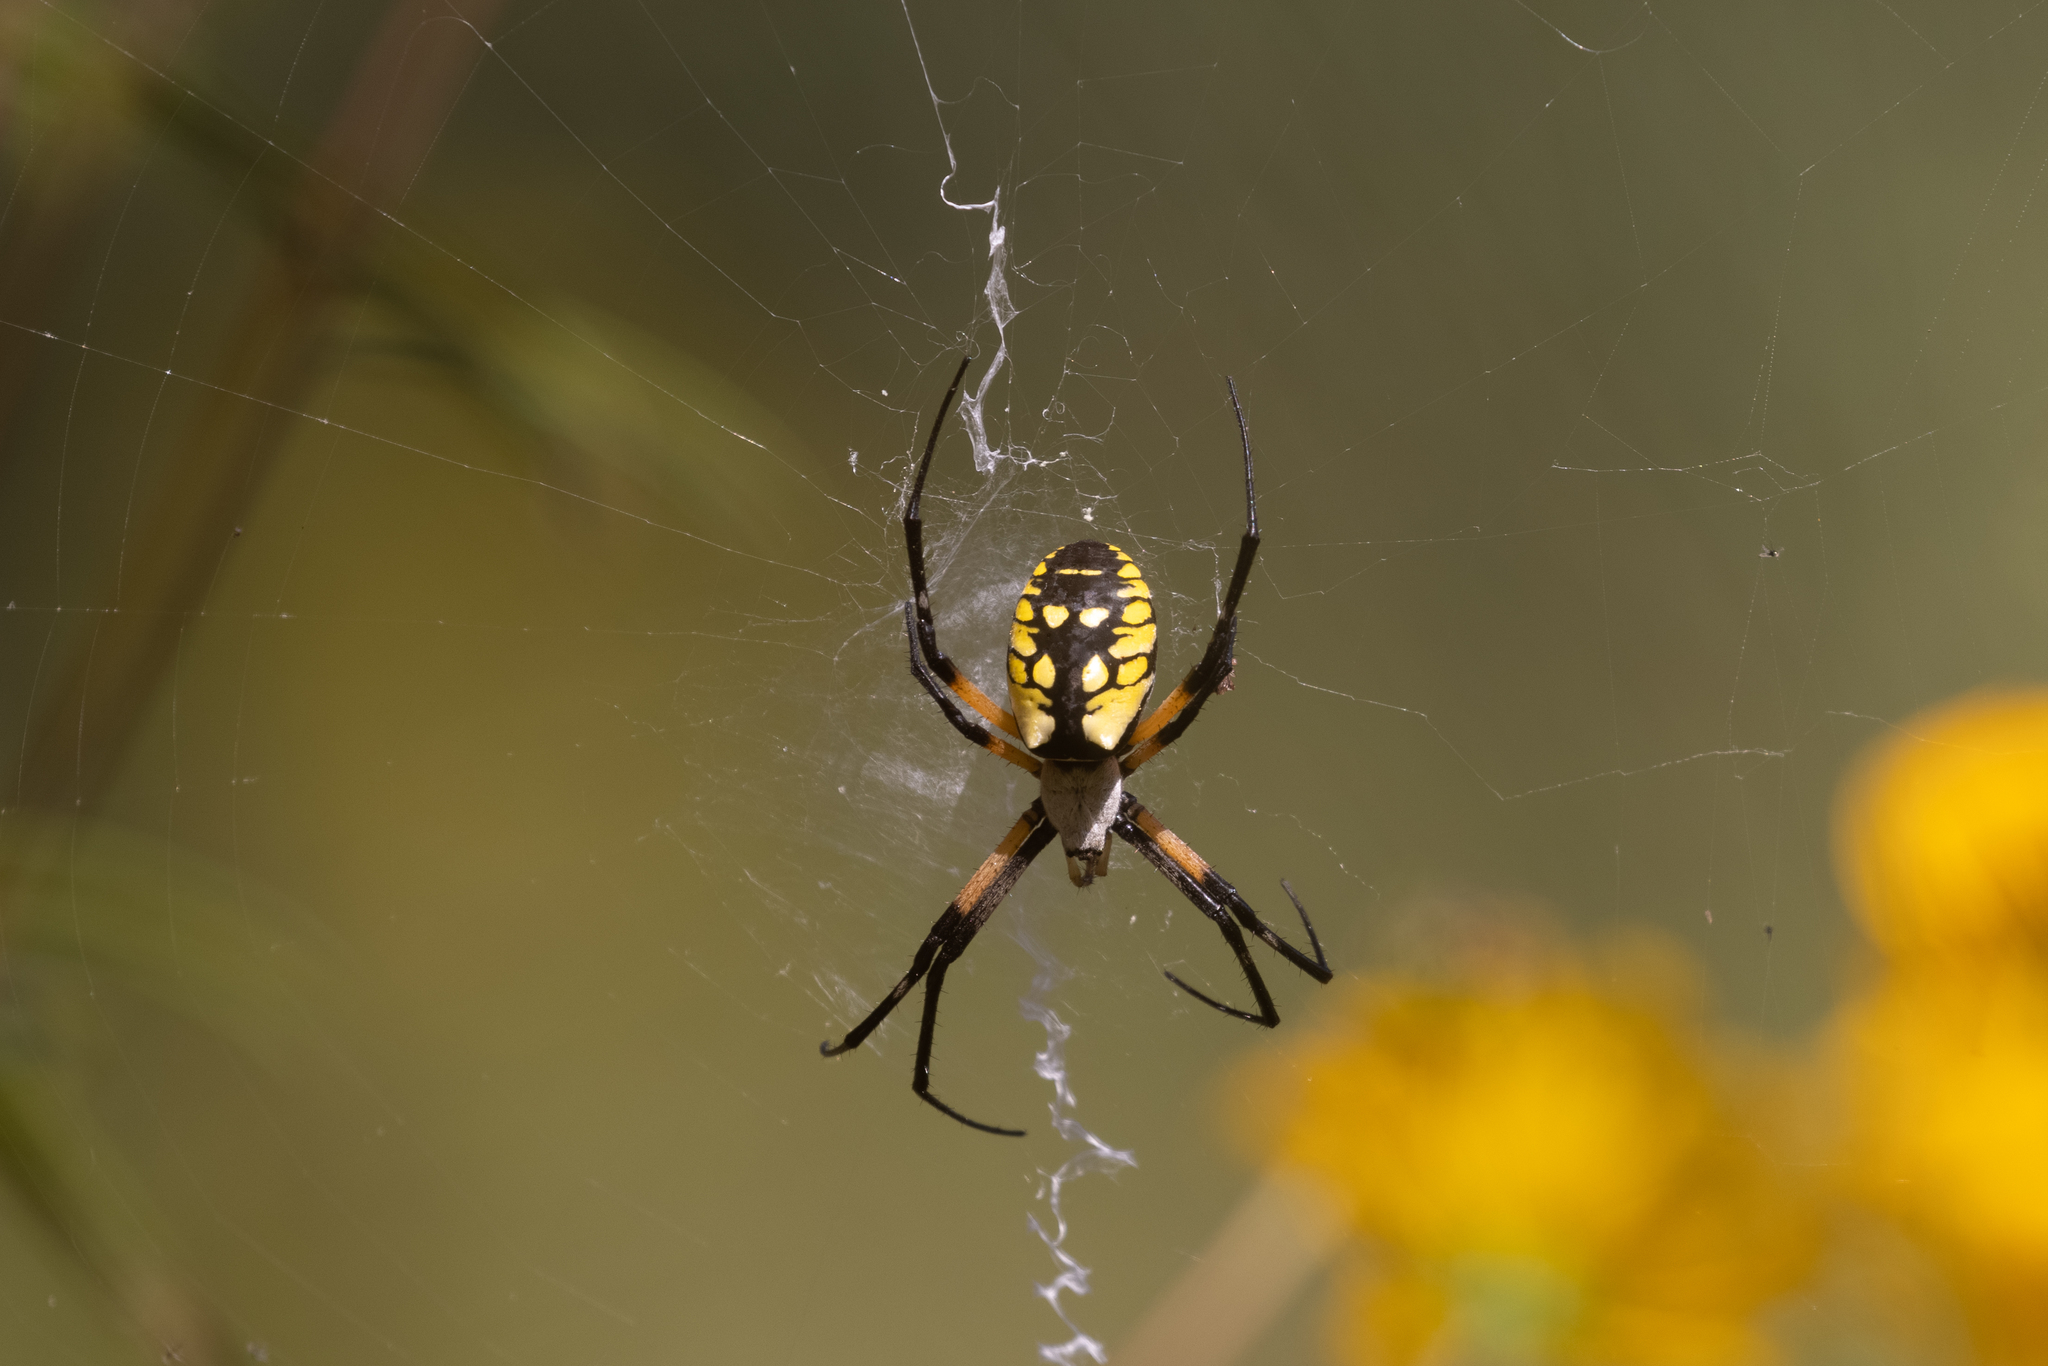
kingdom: Animalia
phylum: Arthropoda
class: Arachnida
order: Araneae
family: Araneidae
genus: Argiope
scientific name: Argiope aurantia
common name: Orb weavers
